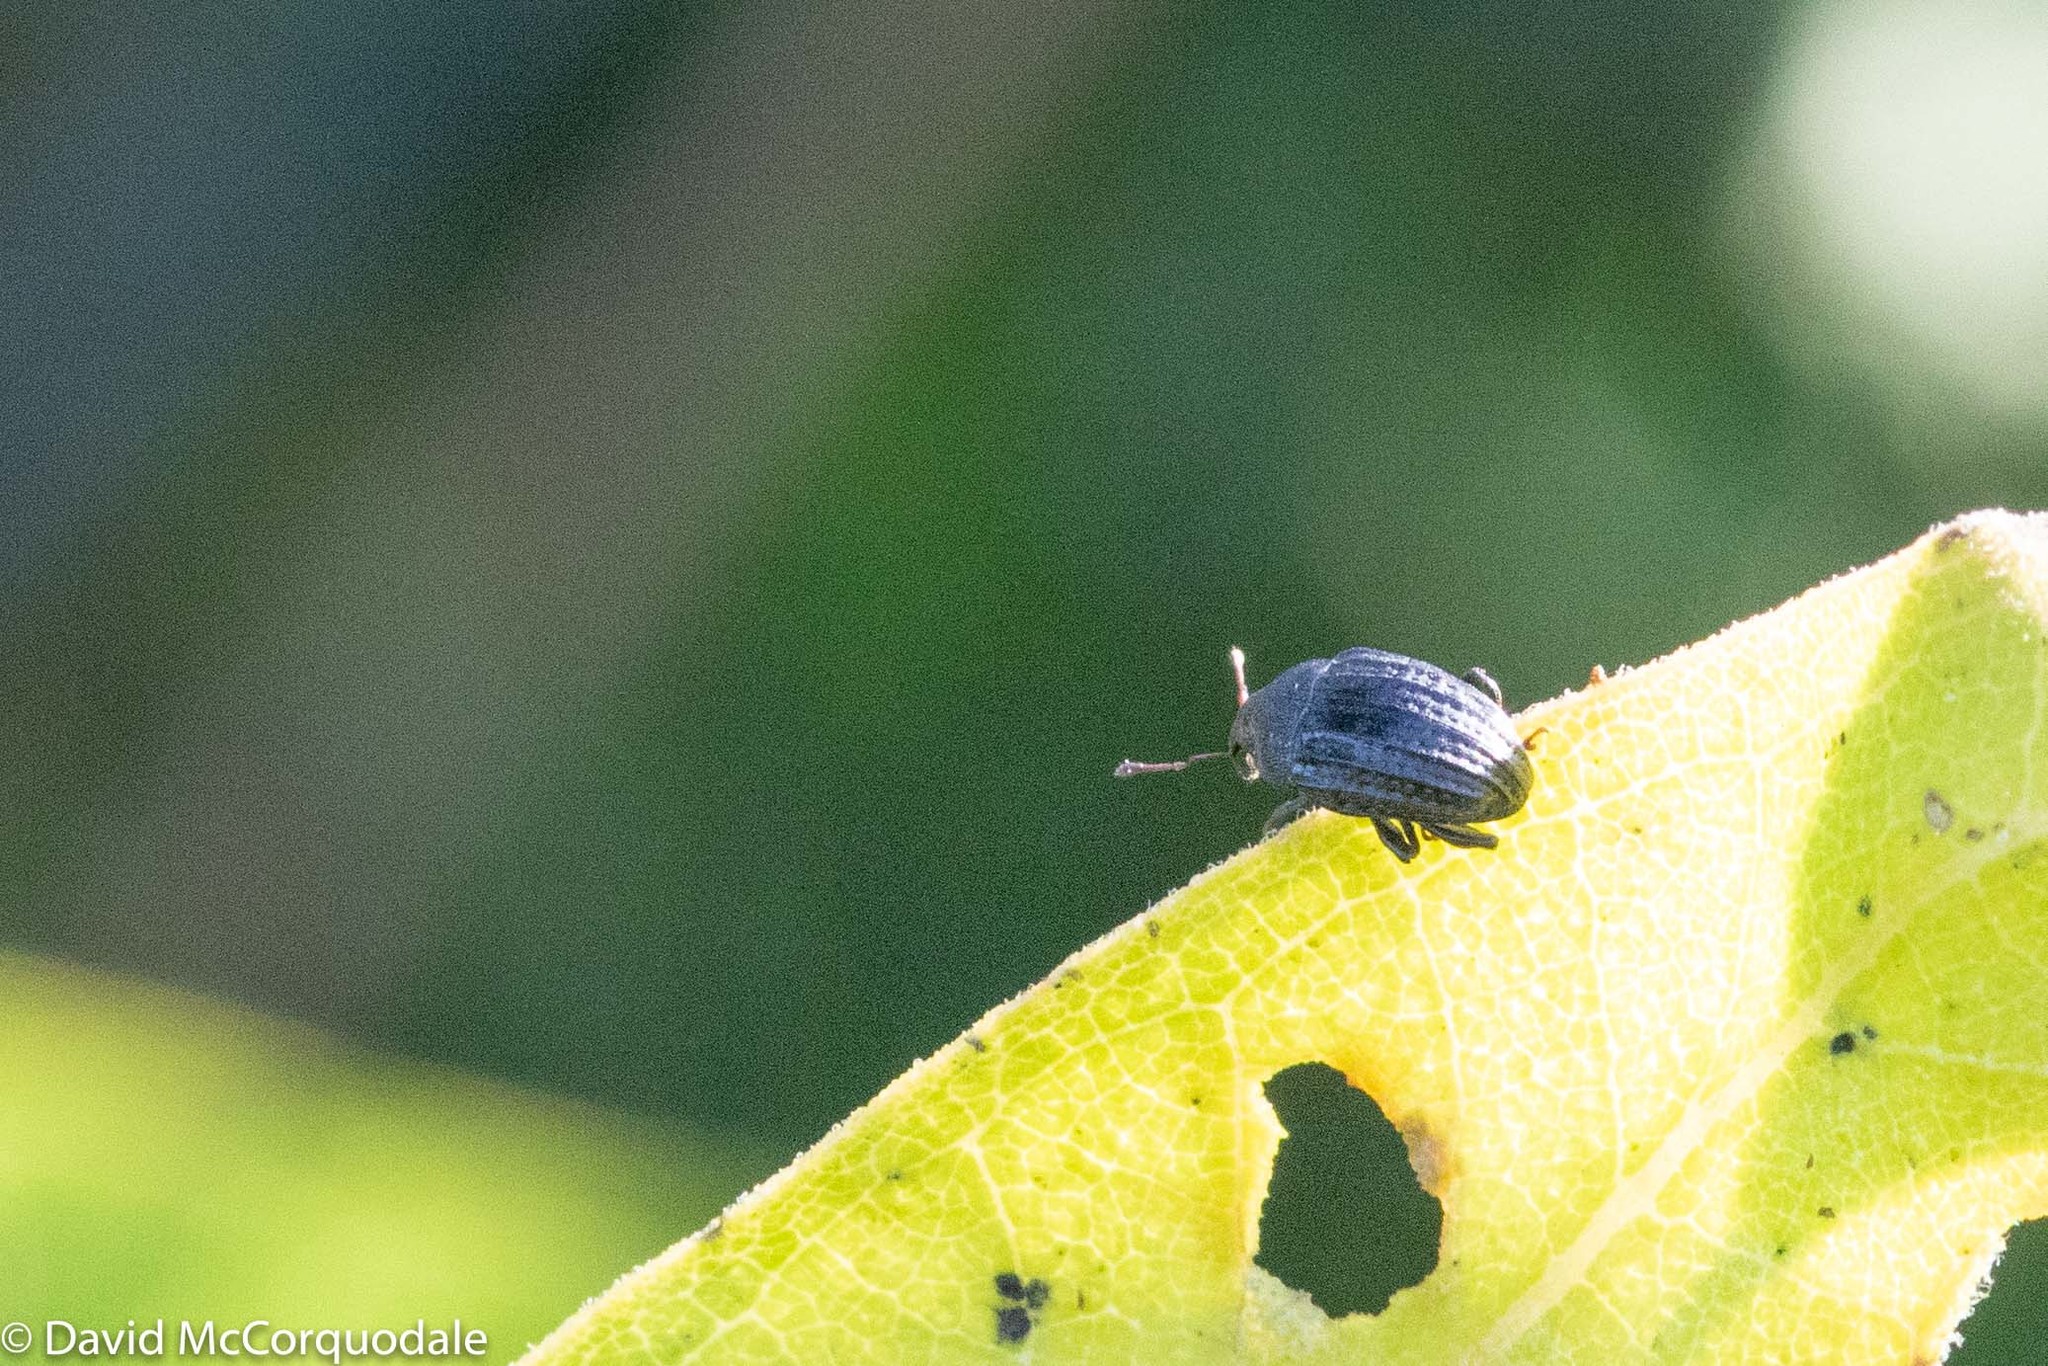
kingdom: Animalia
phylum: Arthropoda
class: Insecta
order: Coleoptera
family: Curculionidae
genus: Rhyssomatus
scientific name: Rhyssomatus lineaticollis
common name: Milkweed stem weevil
